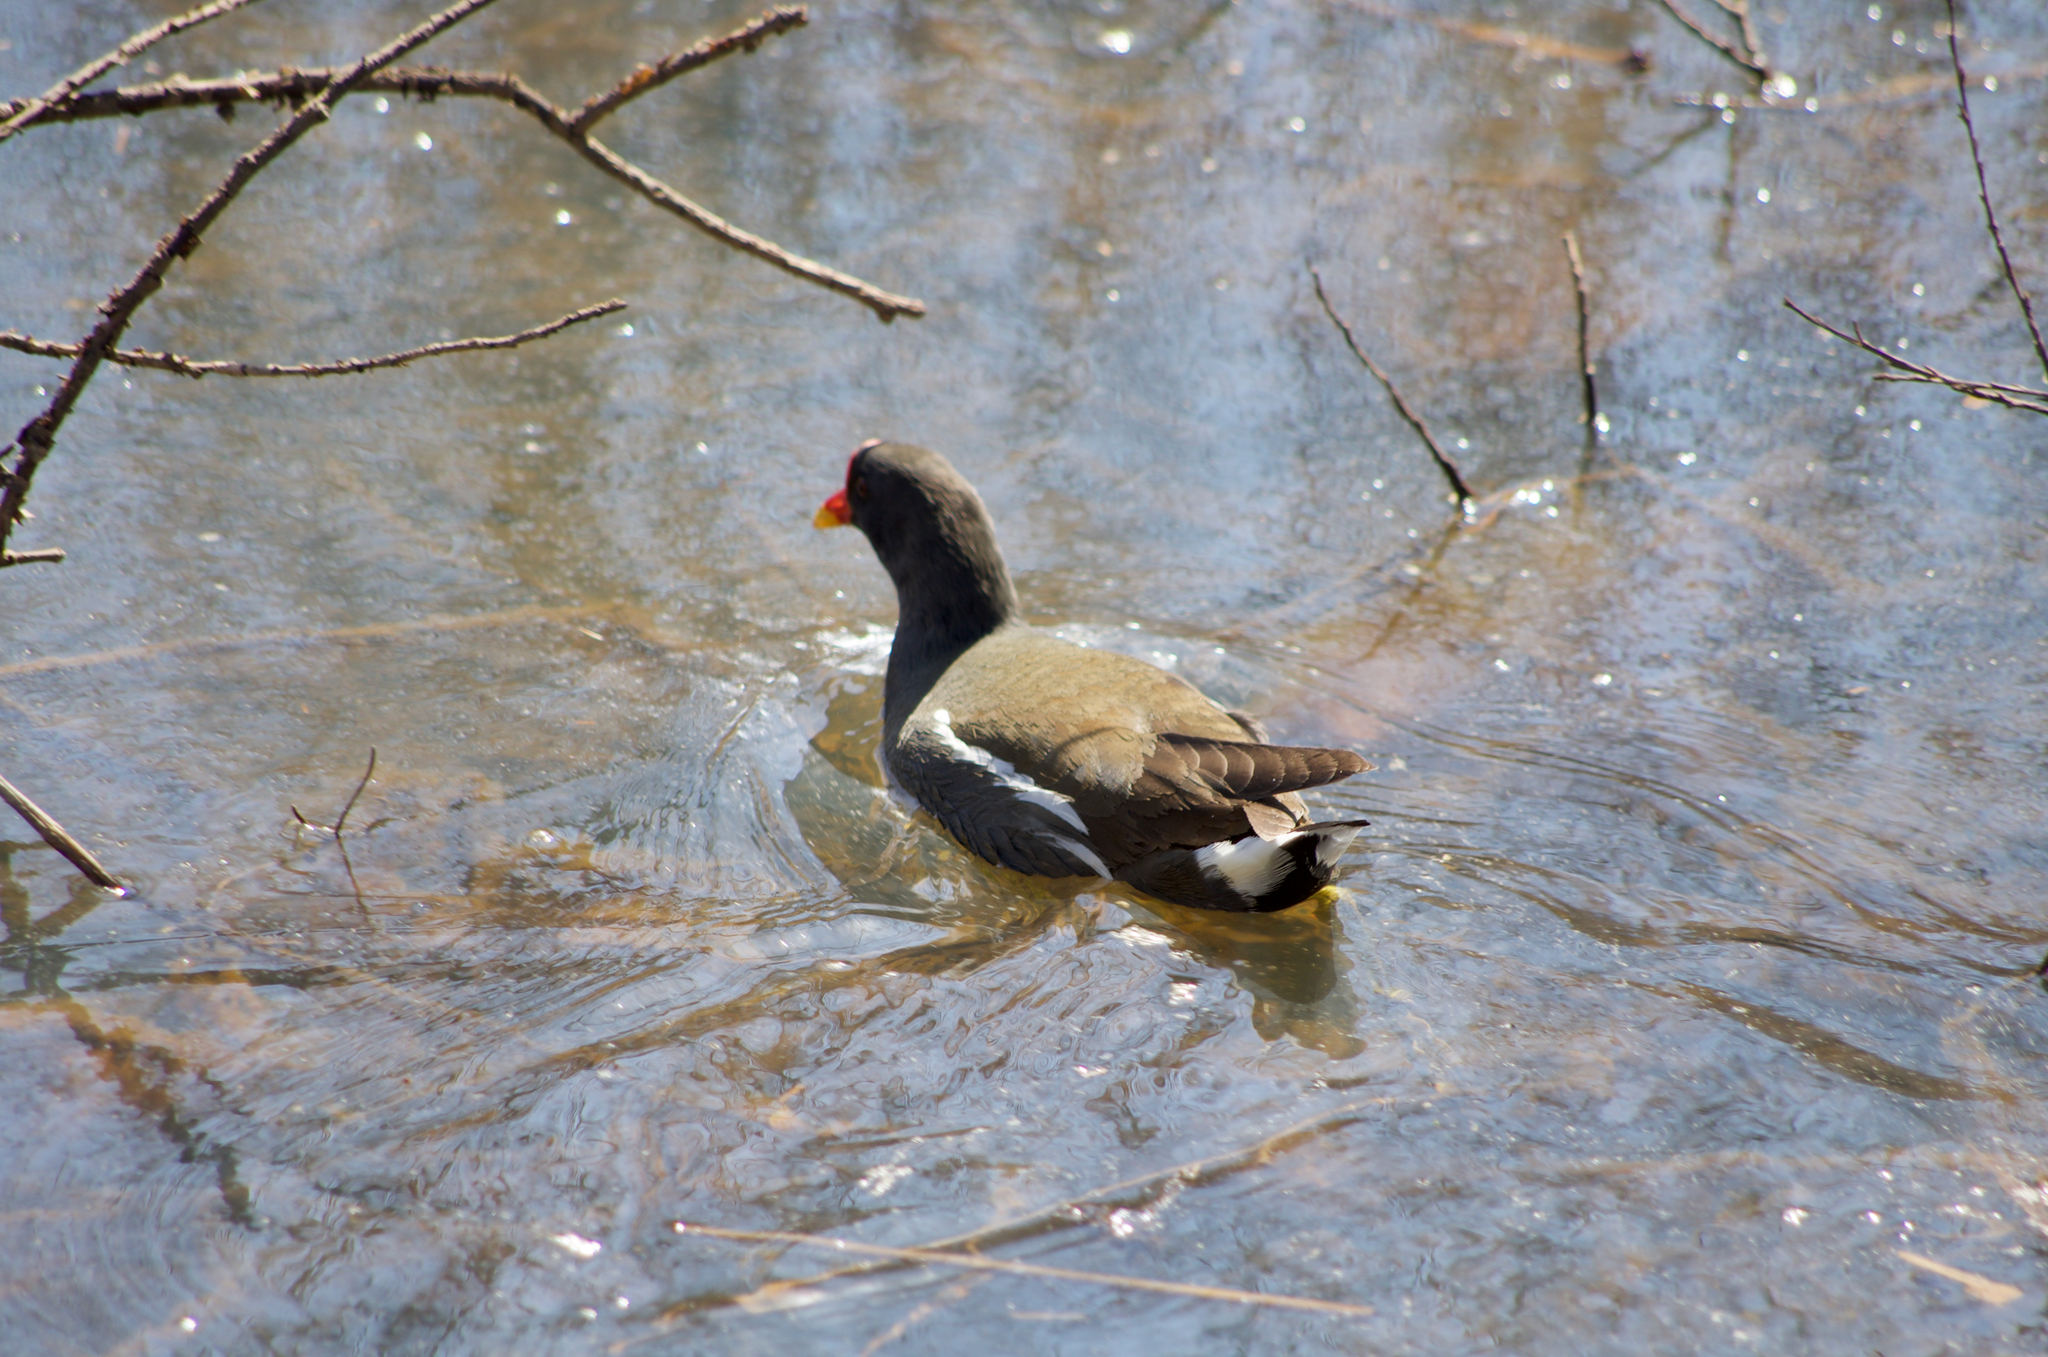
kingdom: Animalia
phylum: Chordata
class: Aves
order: Gruiformes
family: Rallidae
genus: Gallinula
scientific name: Gallinula chloropus
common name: Common moorhen
